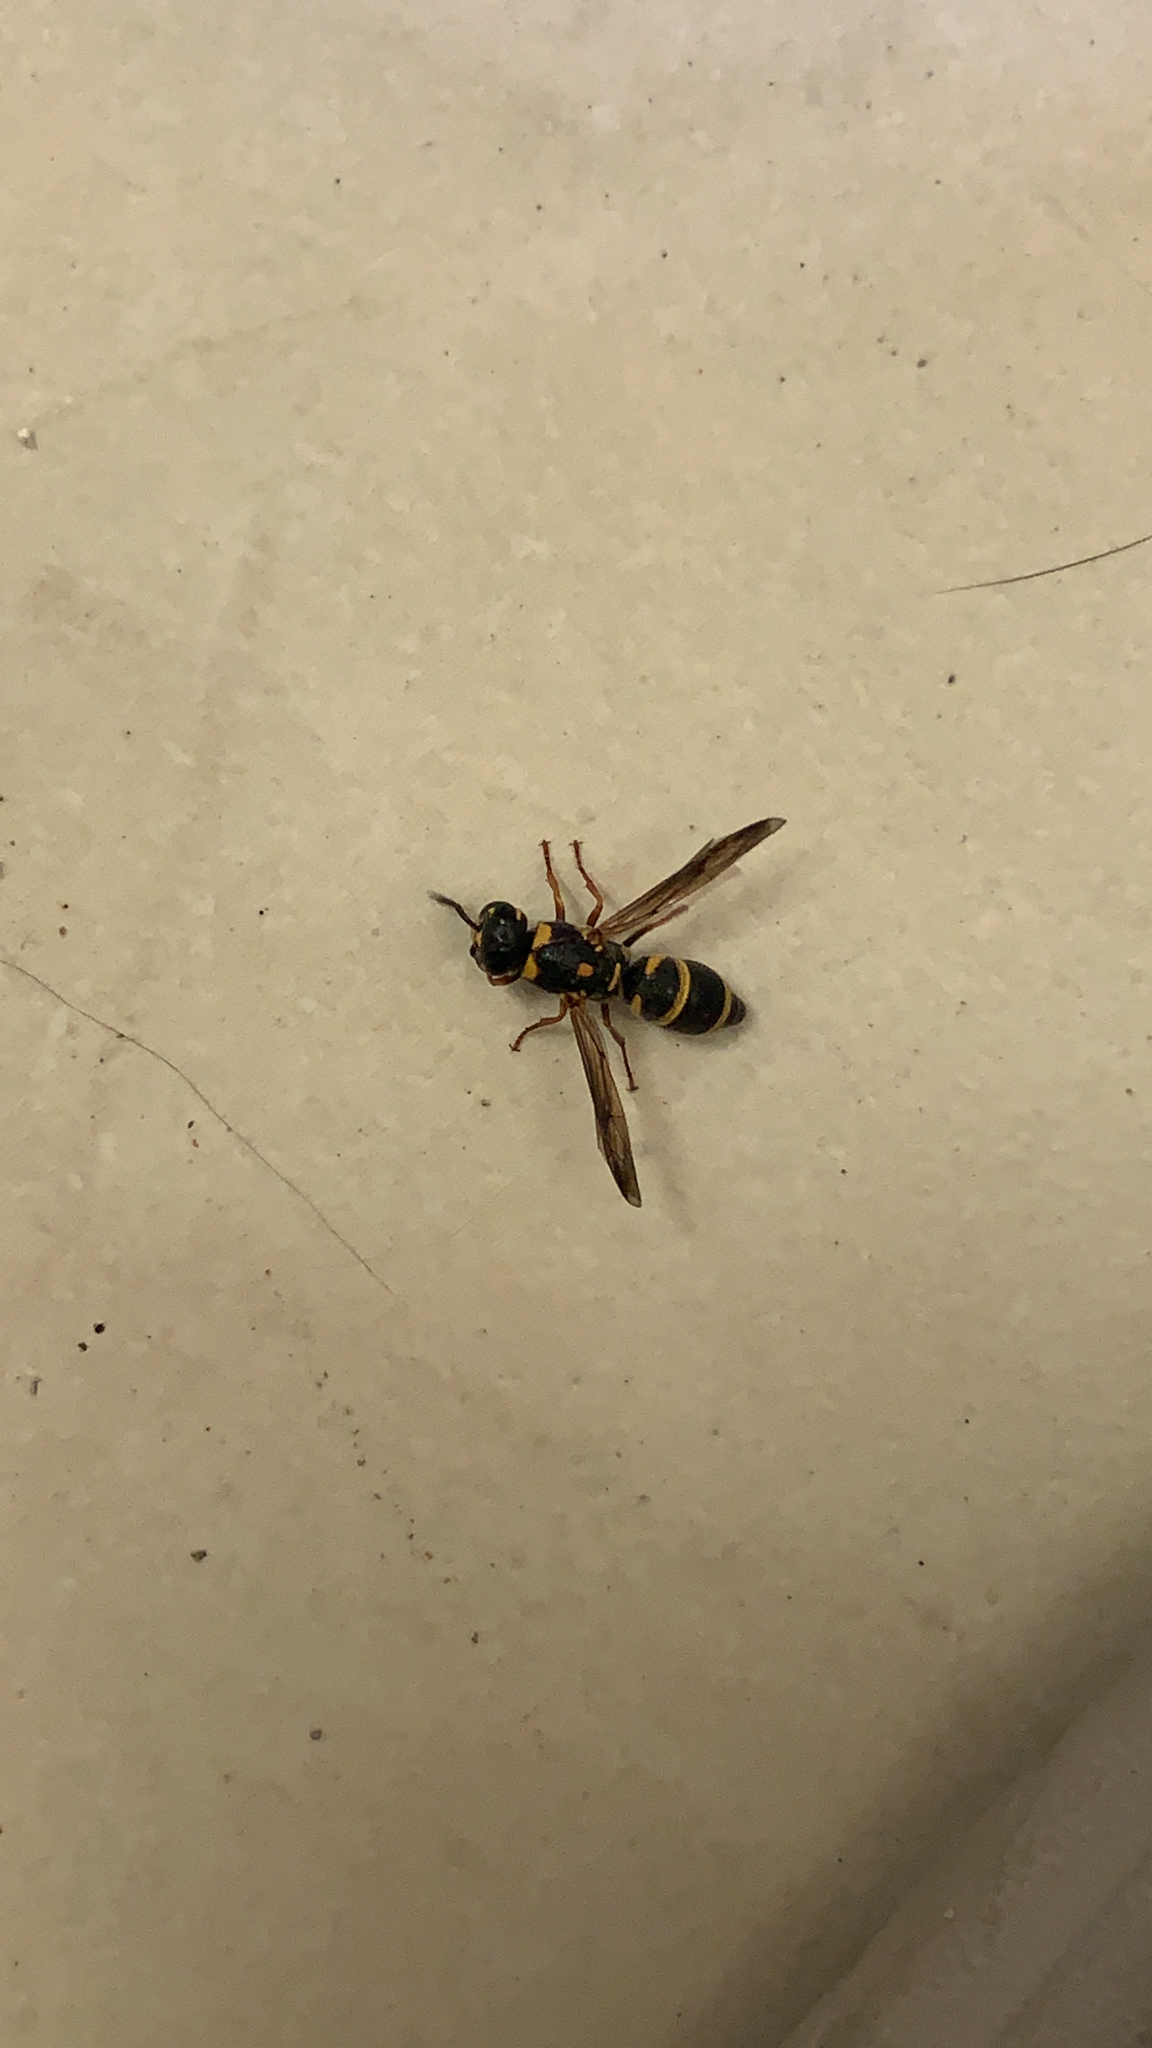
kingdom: Animalia
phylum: Arthropoda
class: Insecta
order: Hymenoptera
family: Eumenidae
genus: Parancistrocerus
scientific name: Parancistrocerus fulvipes
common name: Potter wasp
